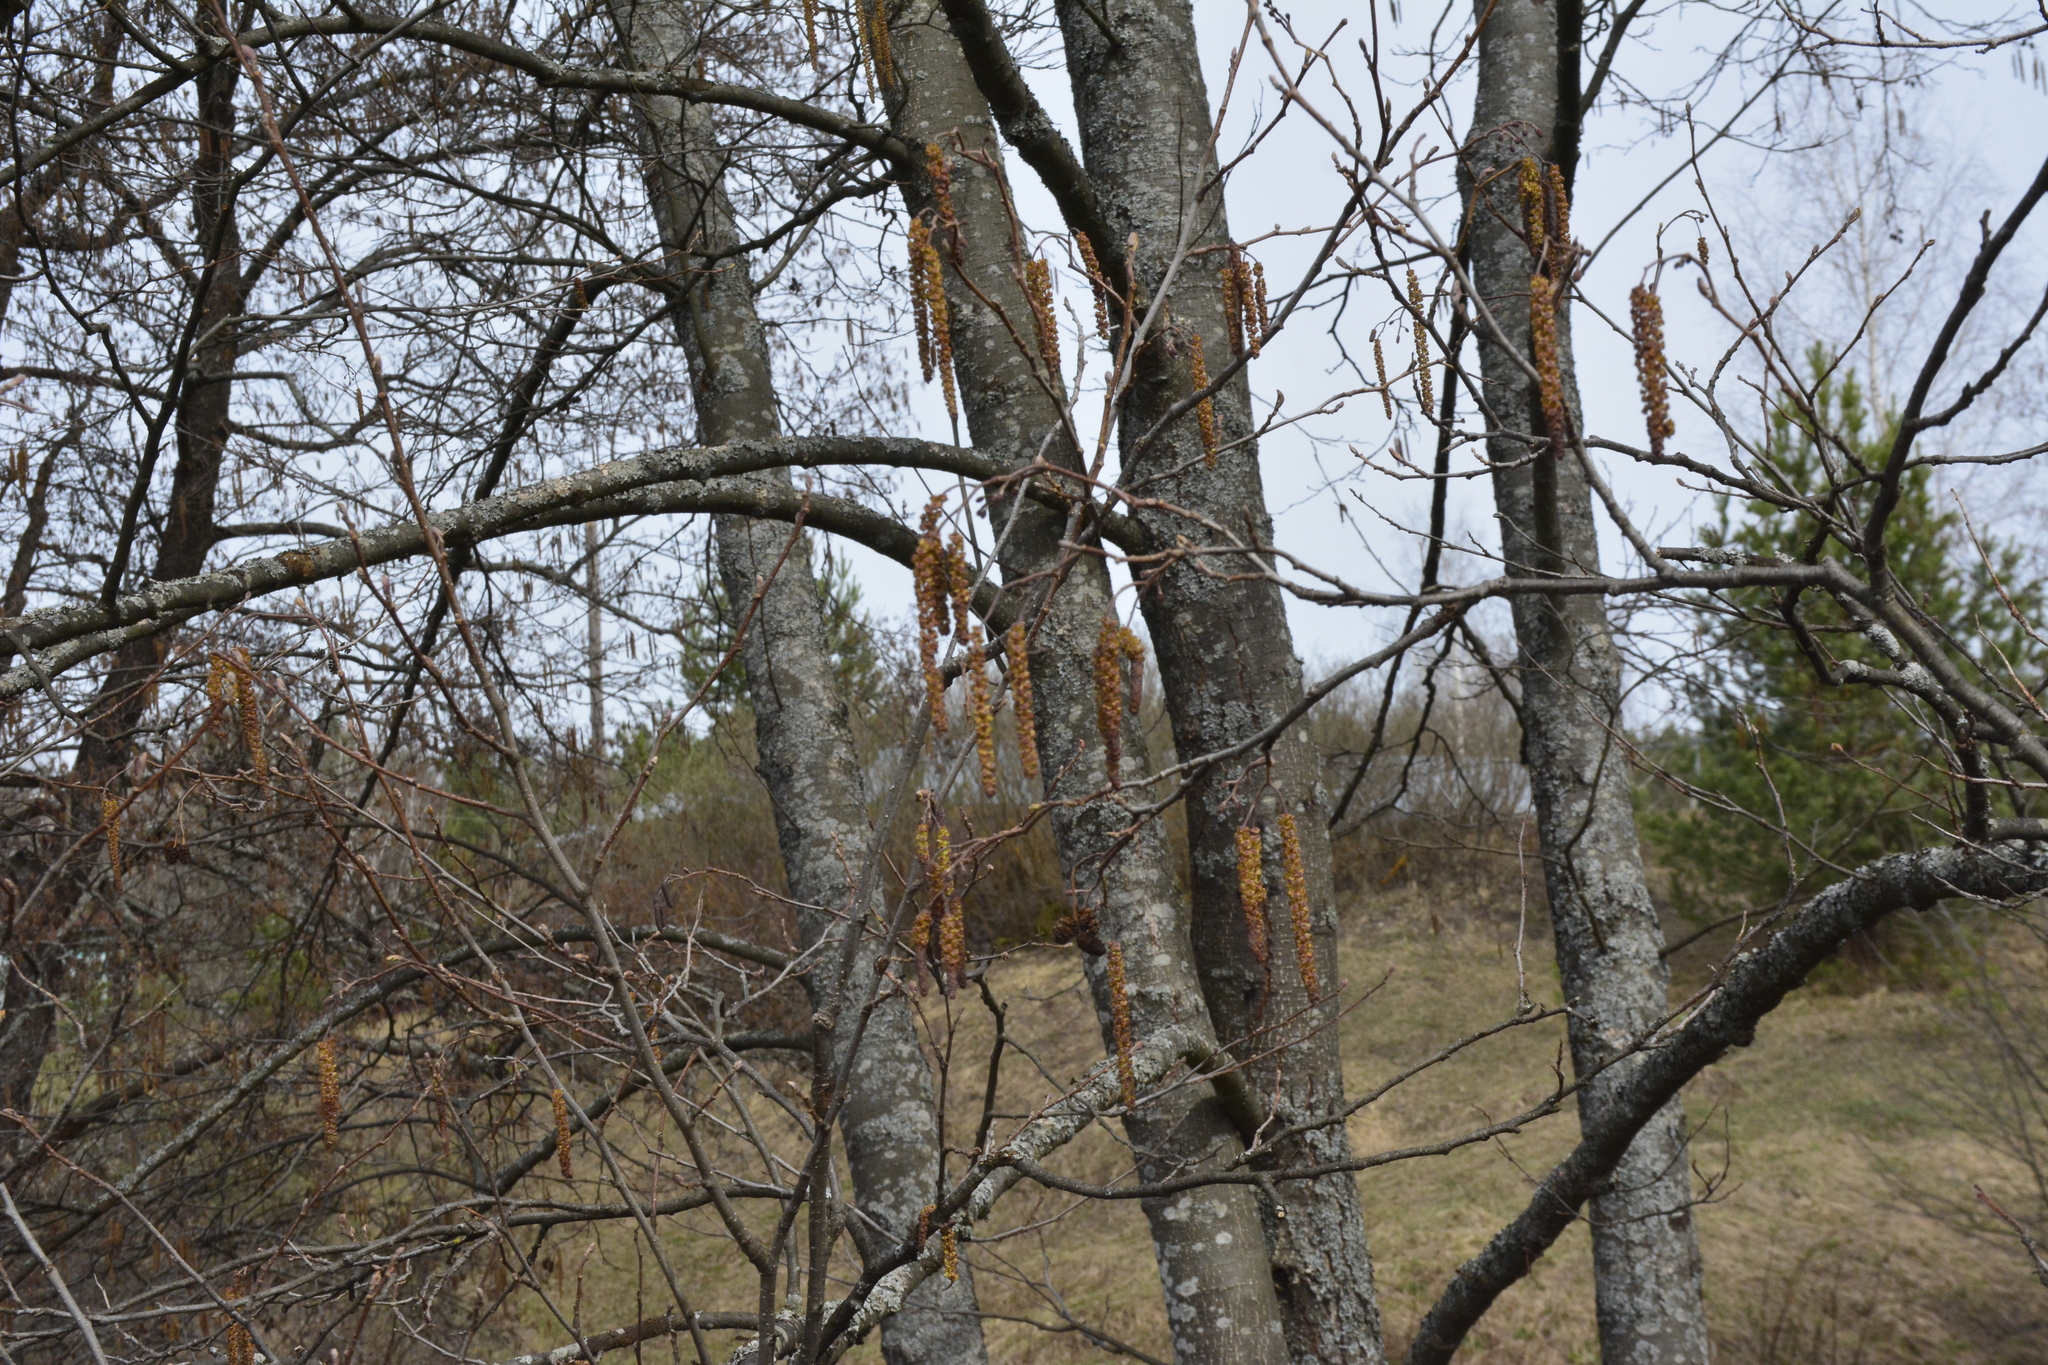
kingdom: Plantae
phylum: Tracheophyta
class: Magnoliopsida
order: Fagales
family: Betulaceae
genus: Alnus
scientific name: Alnus glutinosa
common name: Black alder
